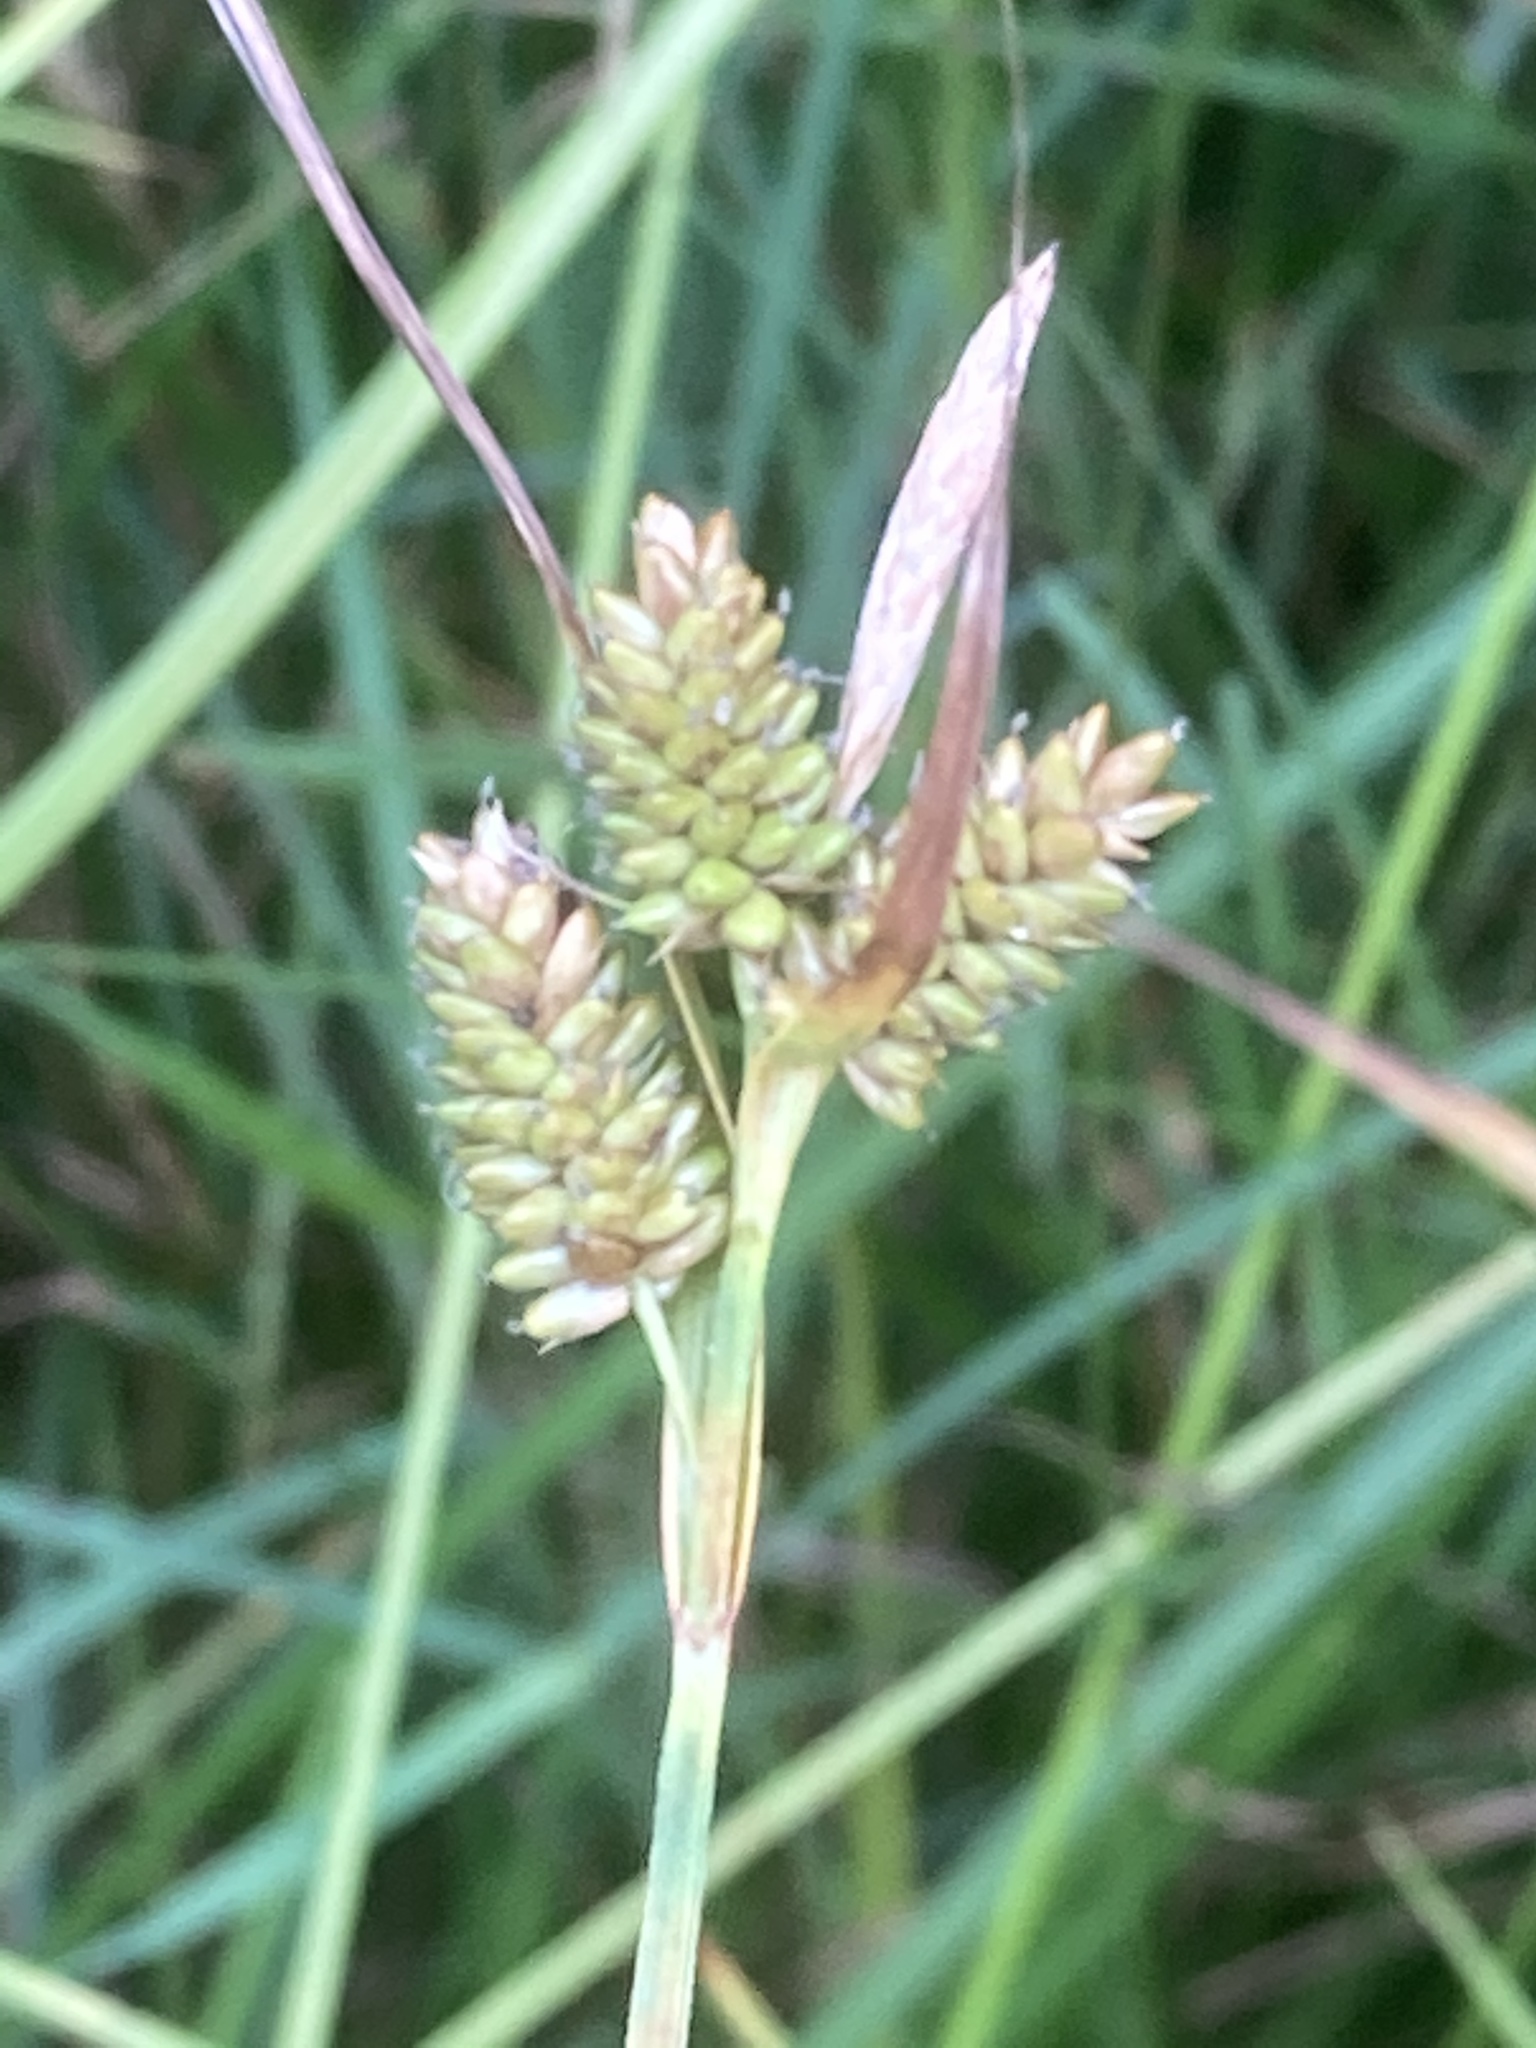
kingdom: Plantae
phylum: Tracheophyta
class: Liliopsida
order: Poales
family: Cyperaceae
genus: Carex
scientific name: Carex pallescens
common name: Pale sedge
